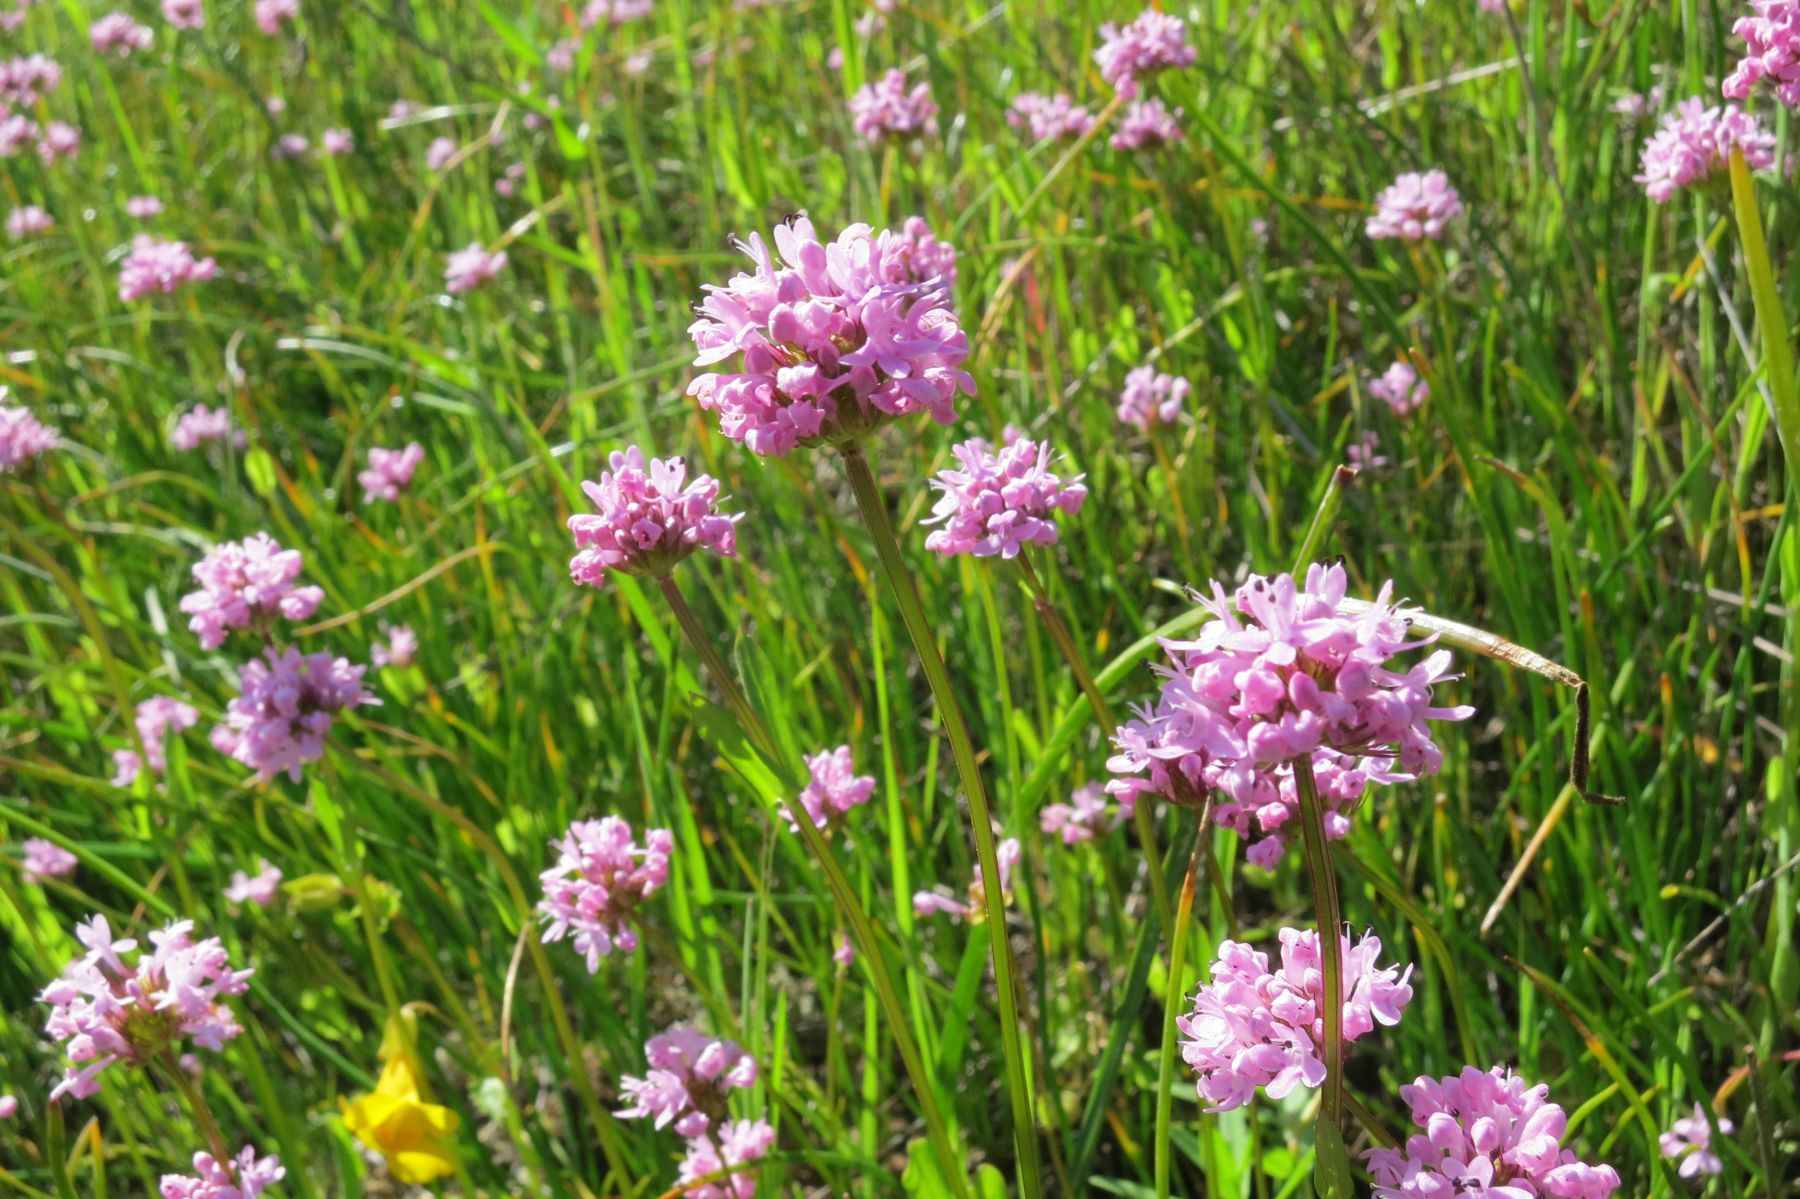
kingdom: Plantae
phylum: Tracheophyta
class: Magnoliopsida
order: Dipsacales
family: Caprifoliaceae
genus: Plectritis
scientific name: Plectritis congesta
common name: Pink plectritis
